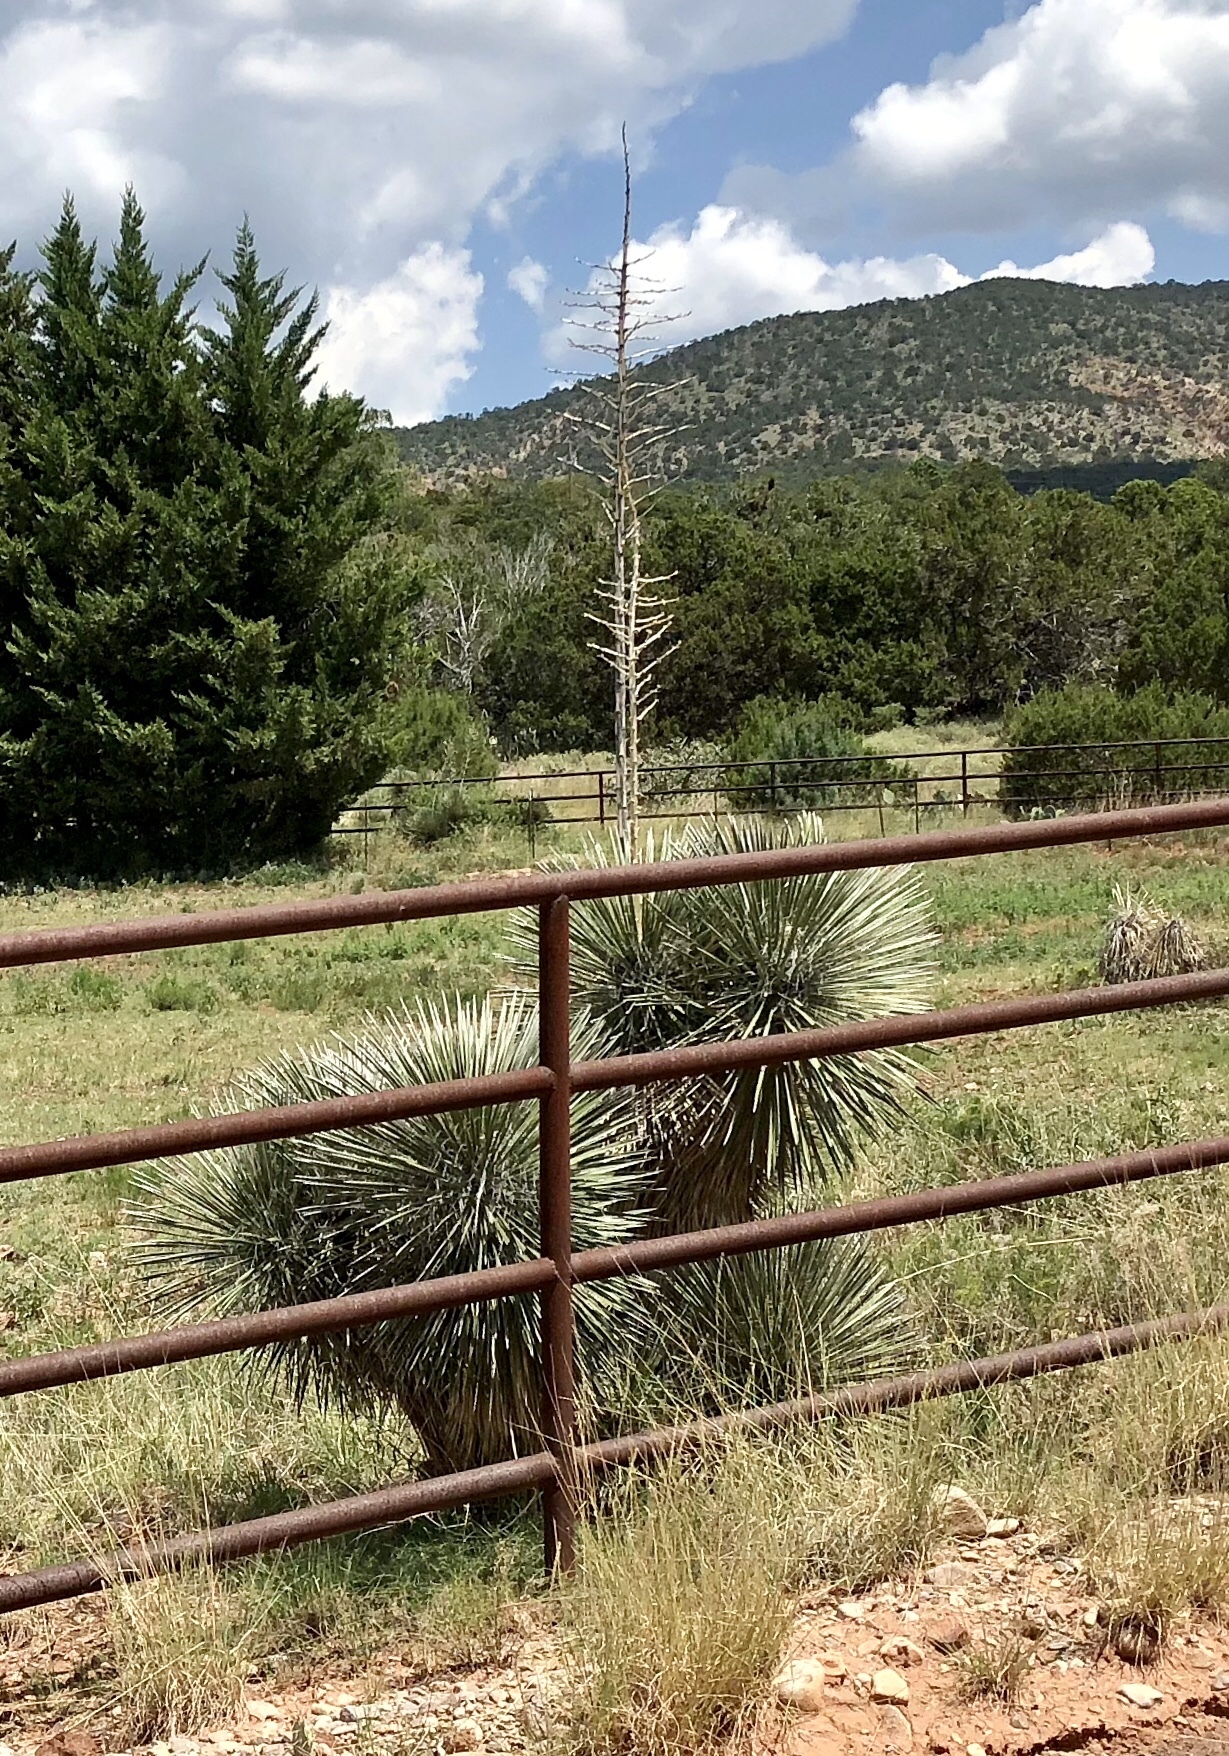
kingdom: Plantae
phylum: Tracheophyta
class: Liliopsida
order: Asparagales
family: Asparagaceae
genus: Yucca
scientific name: Yucca elata
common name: Palmella
